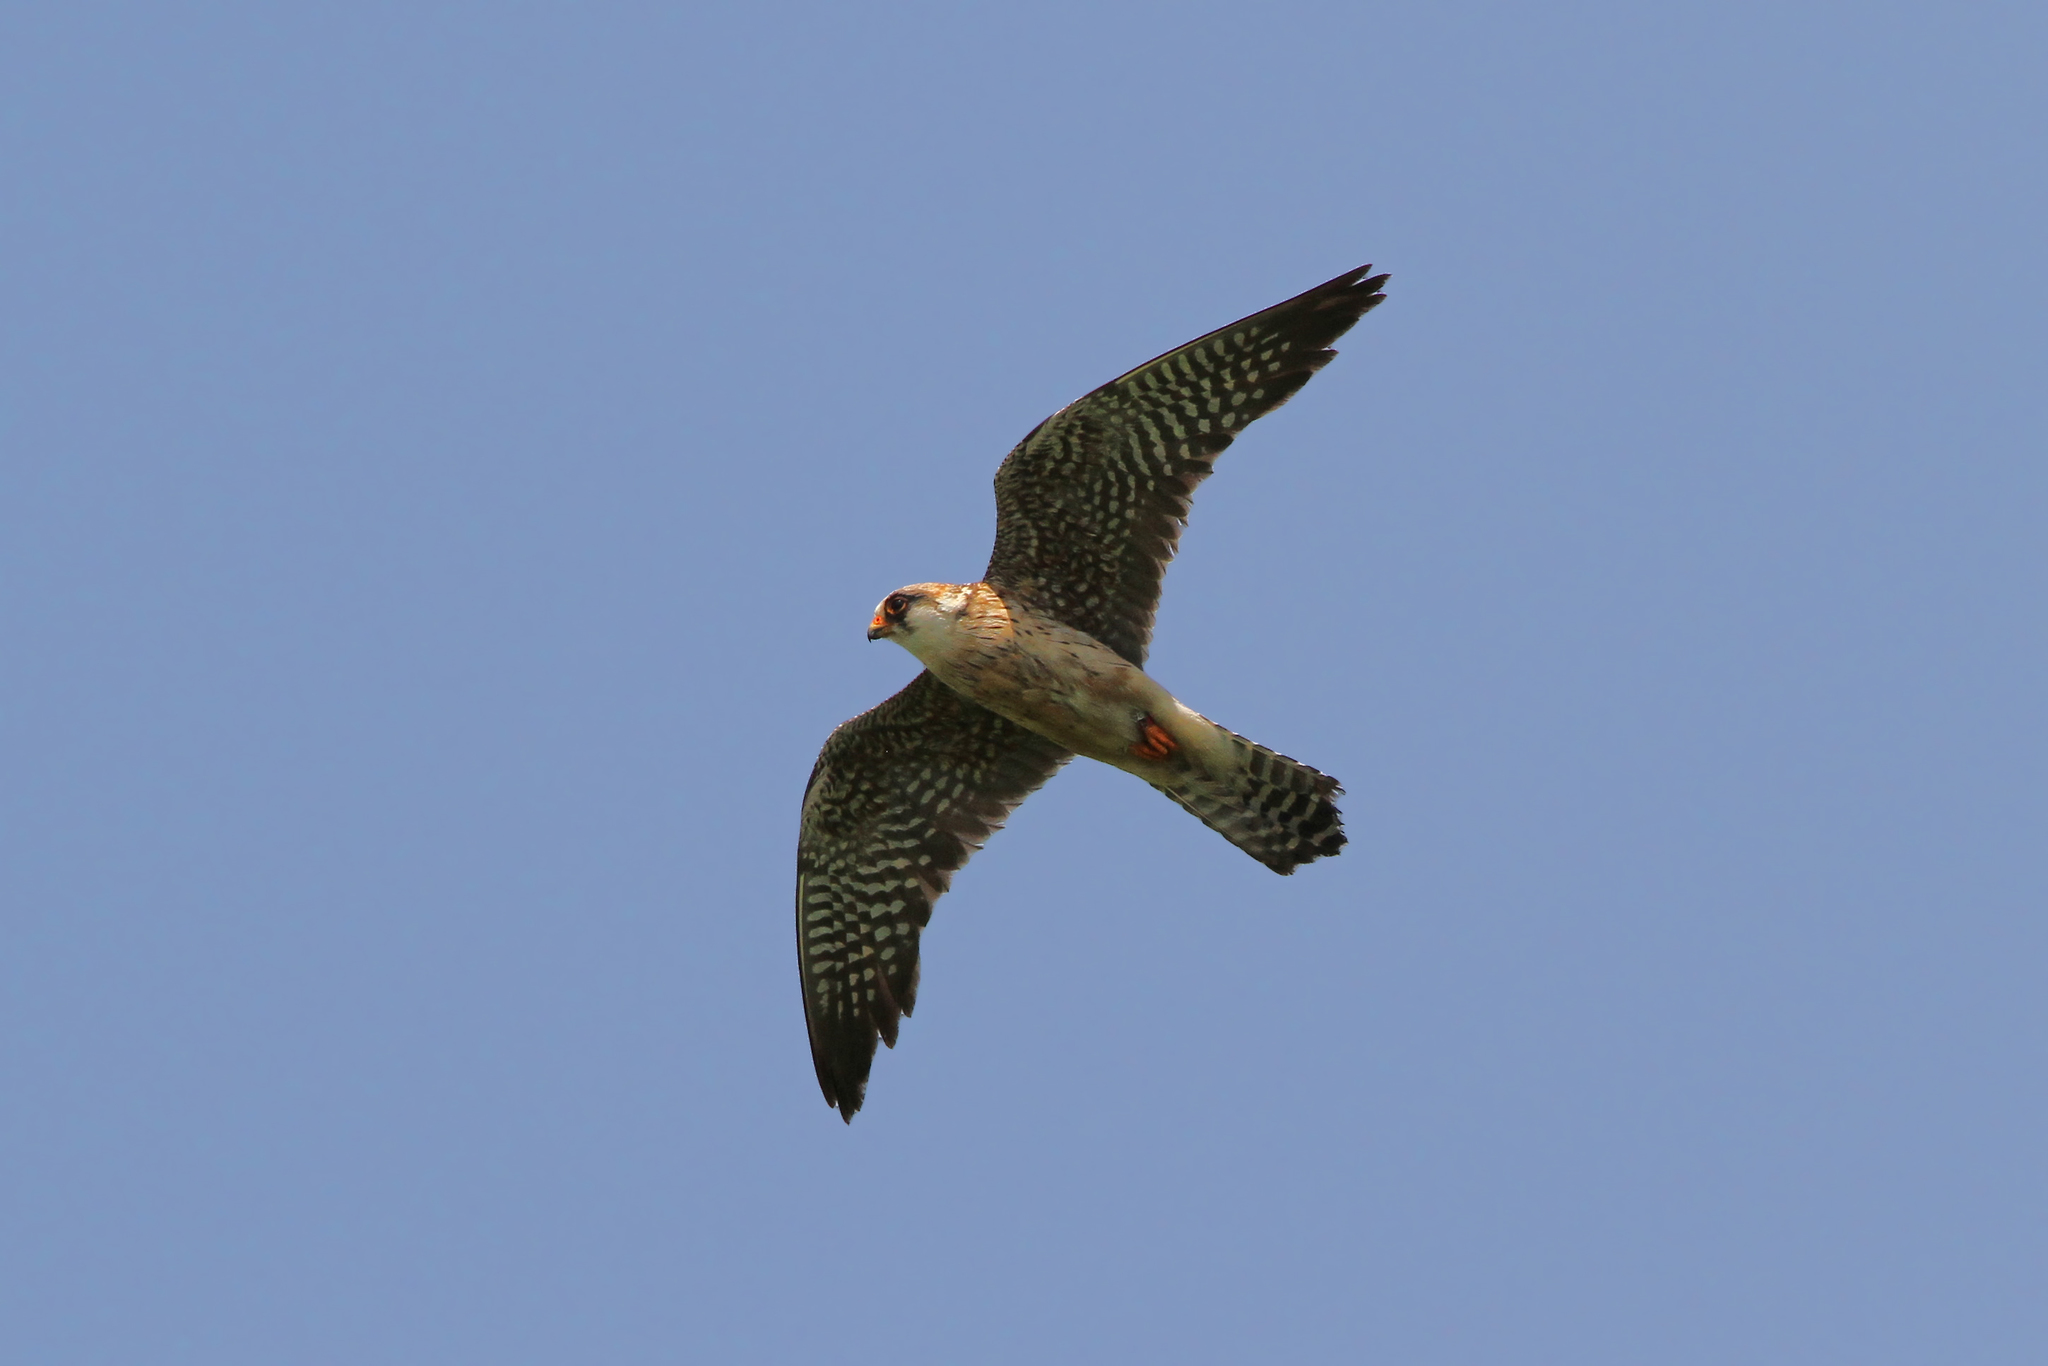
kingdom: Animalia
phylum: Chordata
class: Aves
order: Falconiformes
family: Falconidae
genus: Falco
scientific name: Falco vespertinus
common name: Red-footed falcon
